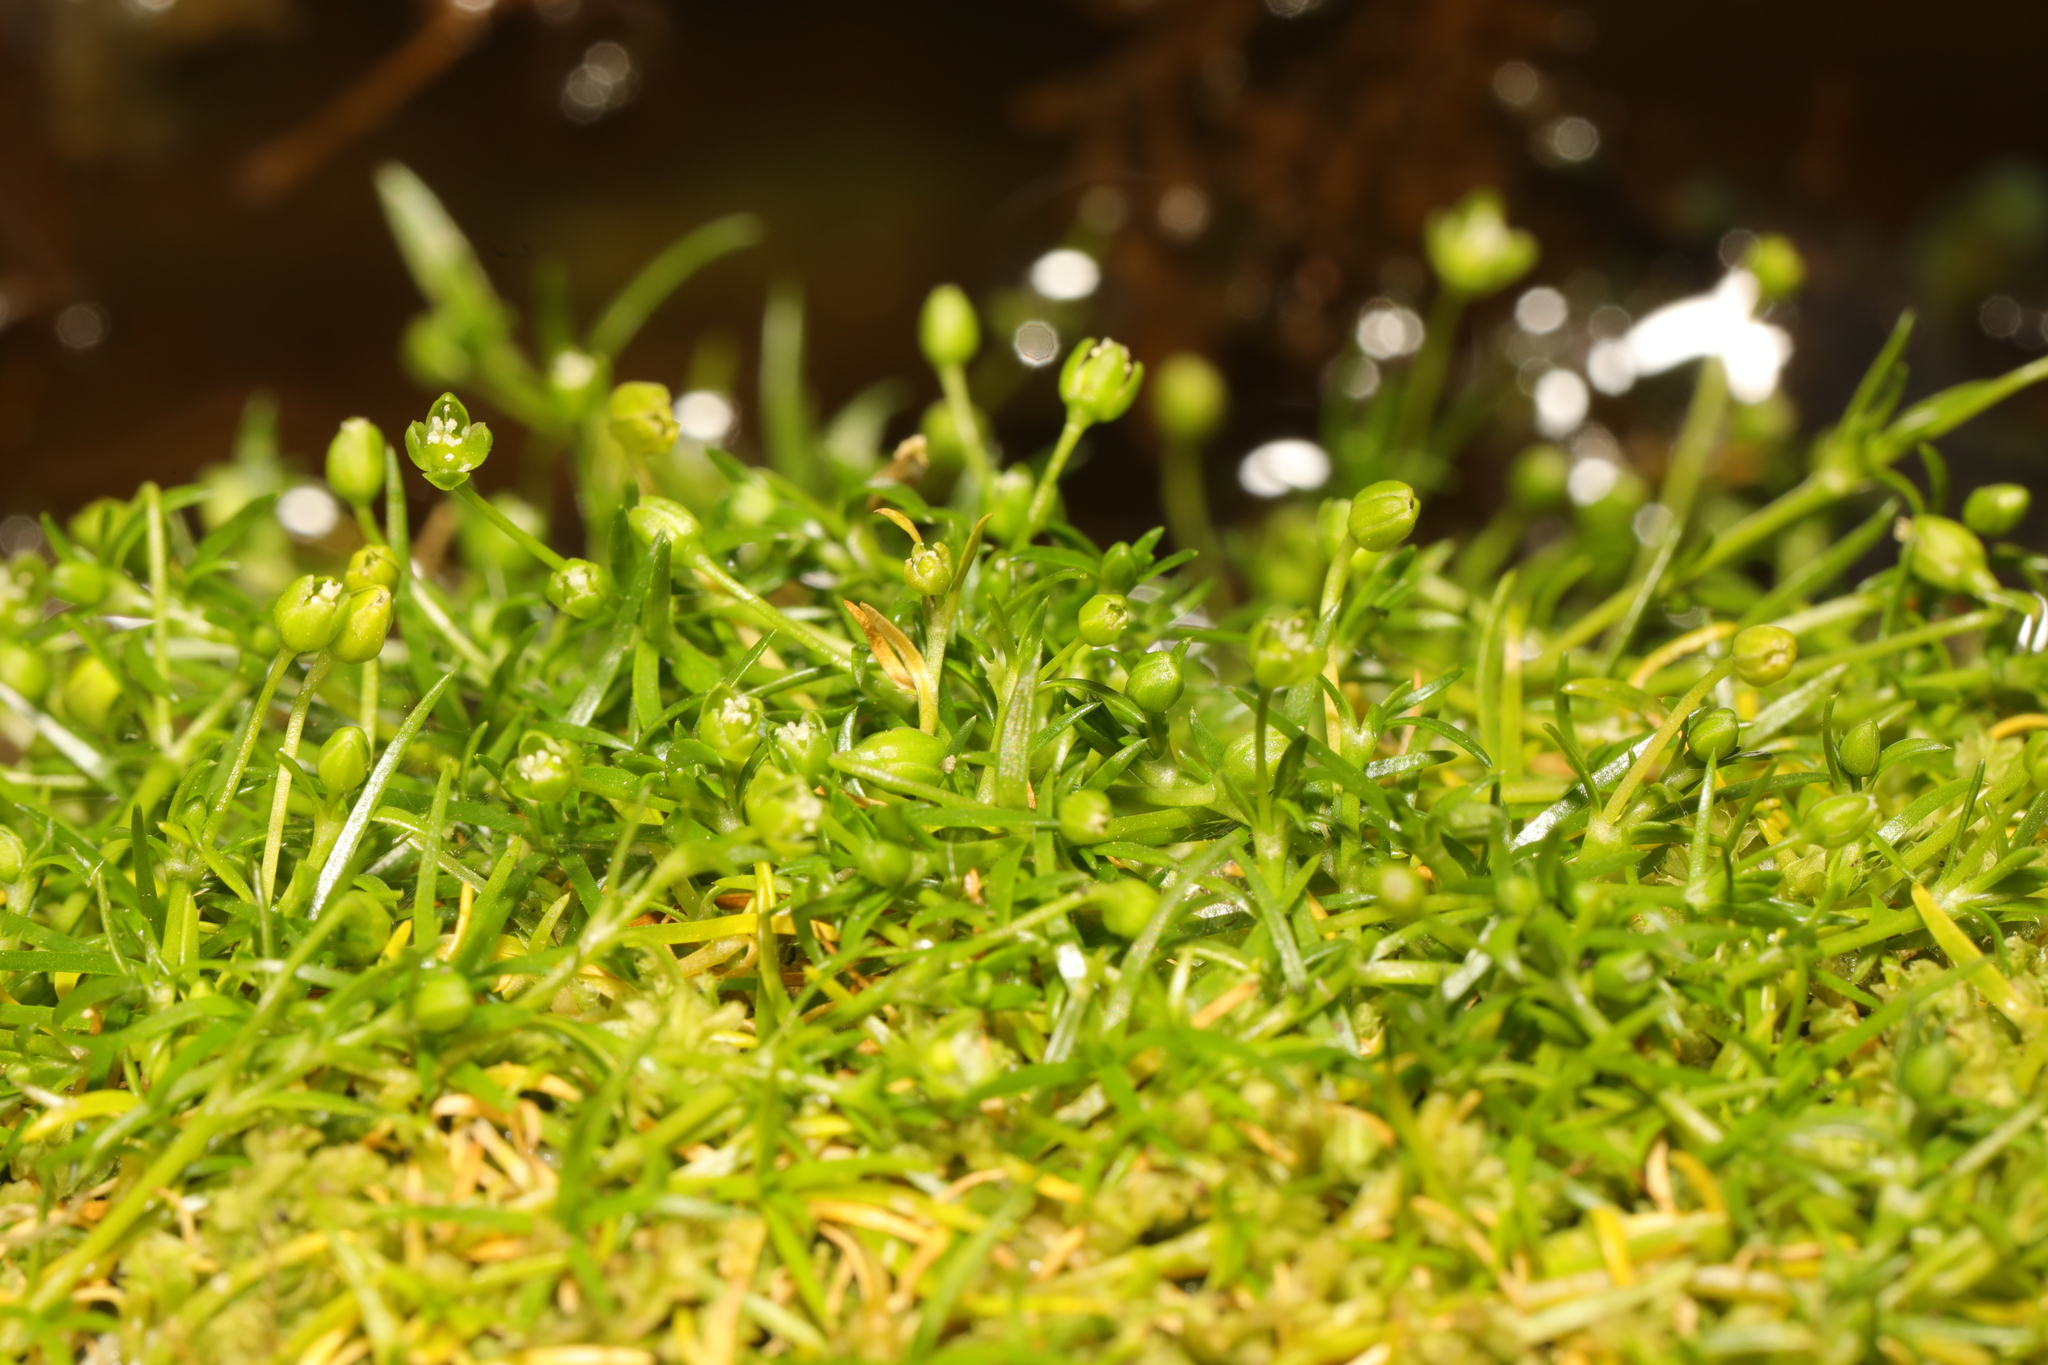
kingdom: Plantae
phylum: Tracheophyta
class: Magnoliopsida
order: Caryophyllales
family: Caryophyllaceae
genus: Sagina
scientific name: Sagina procumbens
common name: Procumbent pearlwort
